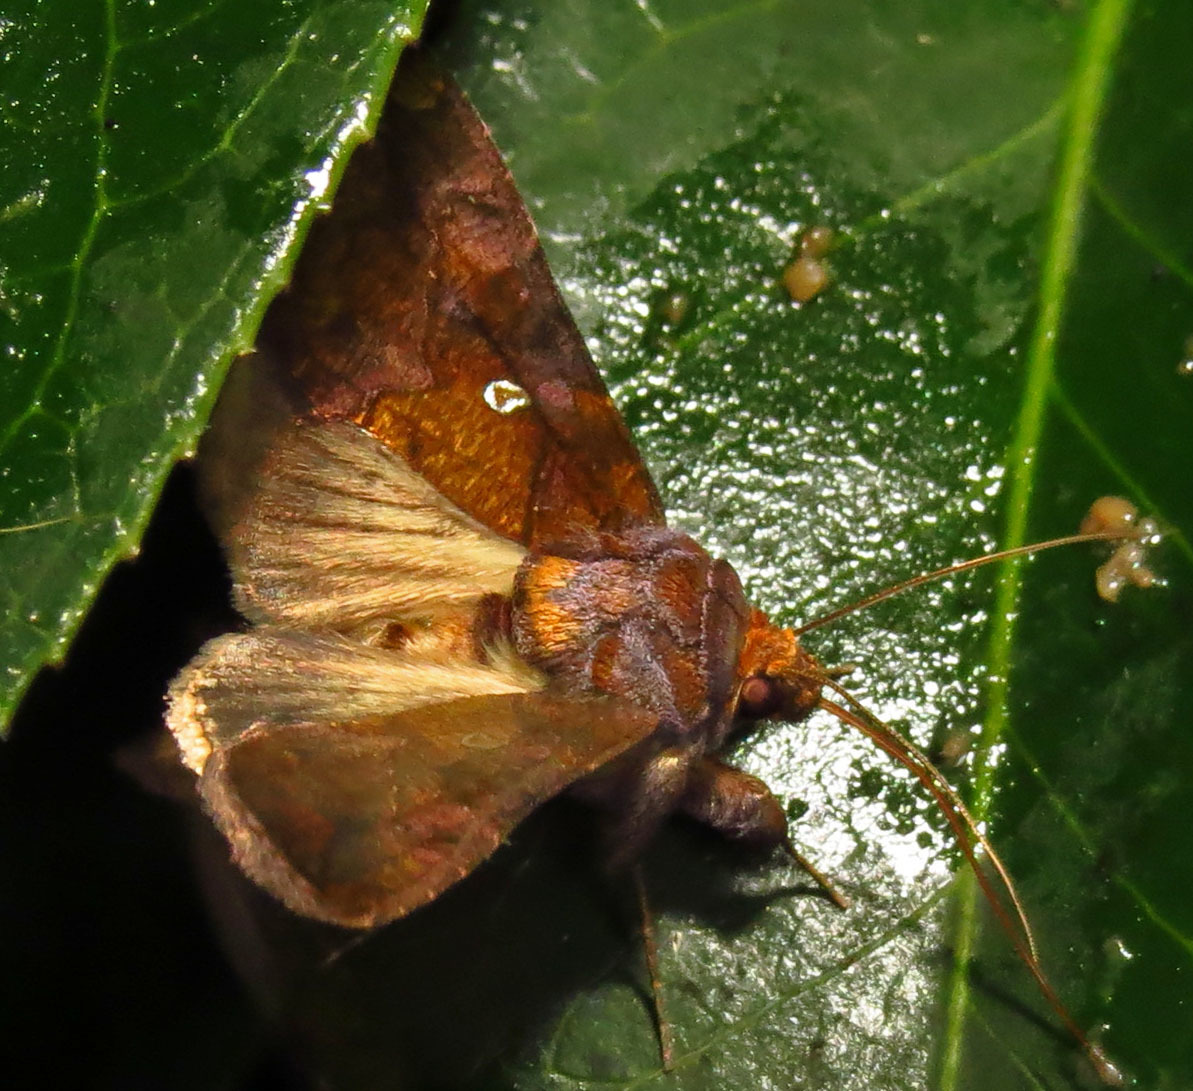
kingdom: Animalia
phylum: Arthropoda
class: Insecta
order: Lepidoptera
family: Noctuidae
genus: Argyrogramma
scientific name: Argyrogramma verruca
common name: Golden looper moth
